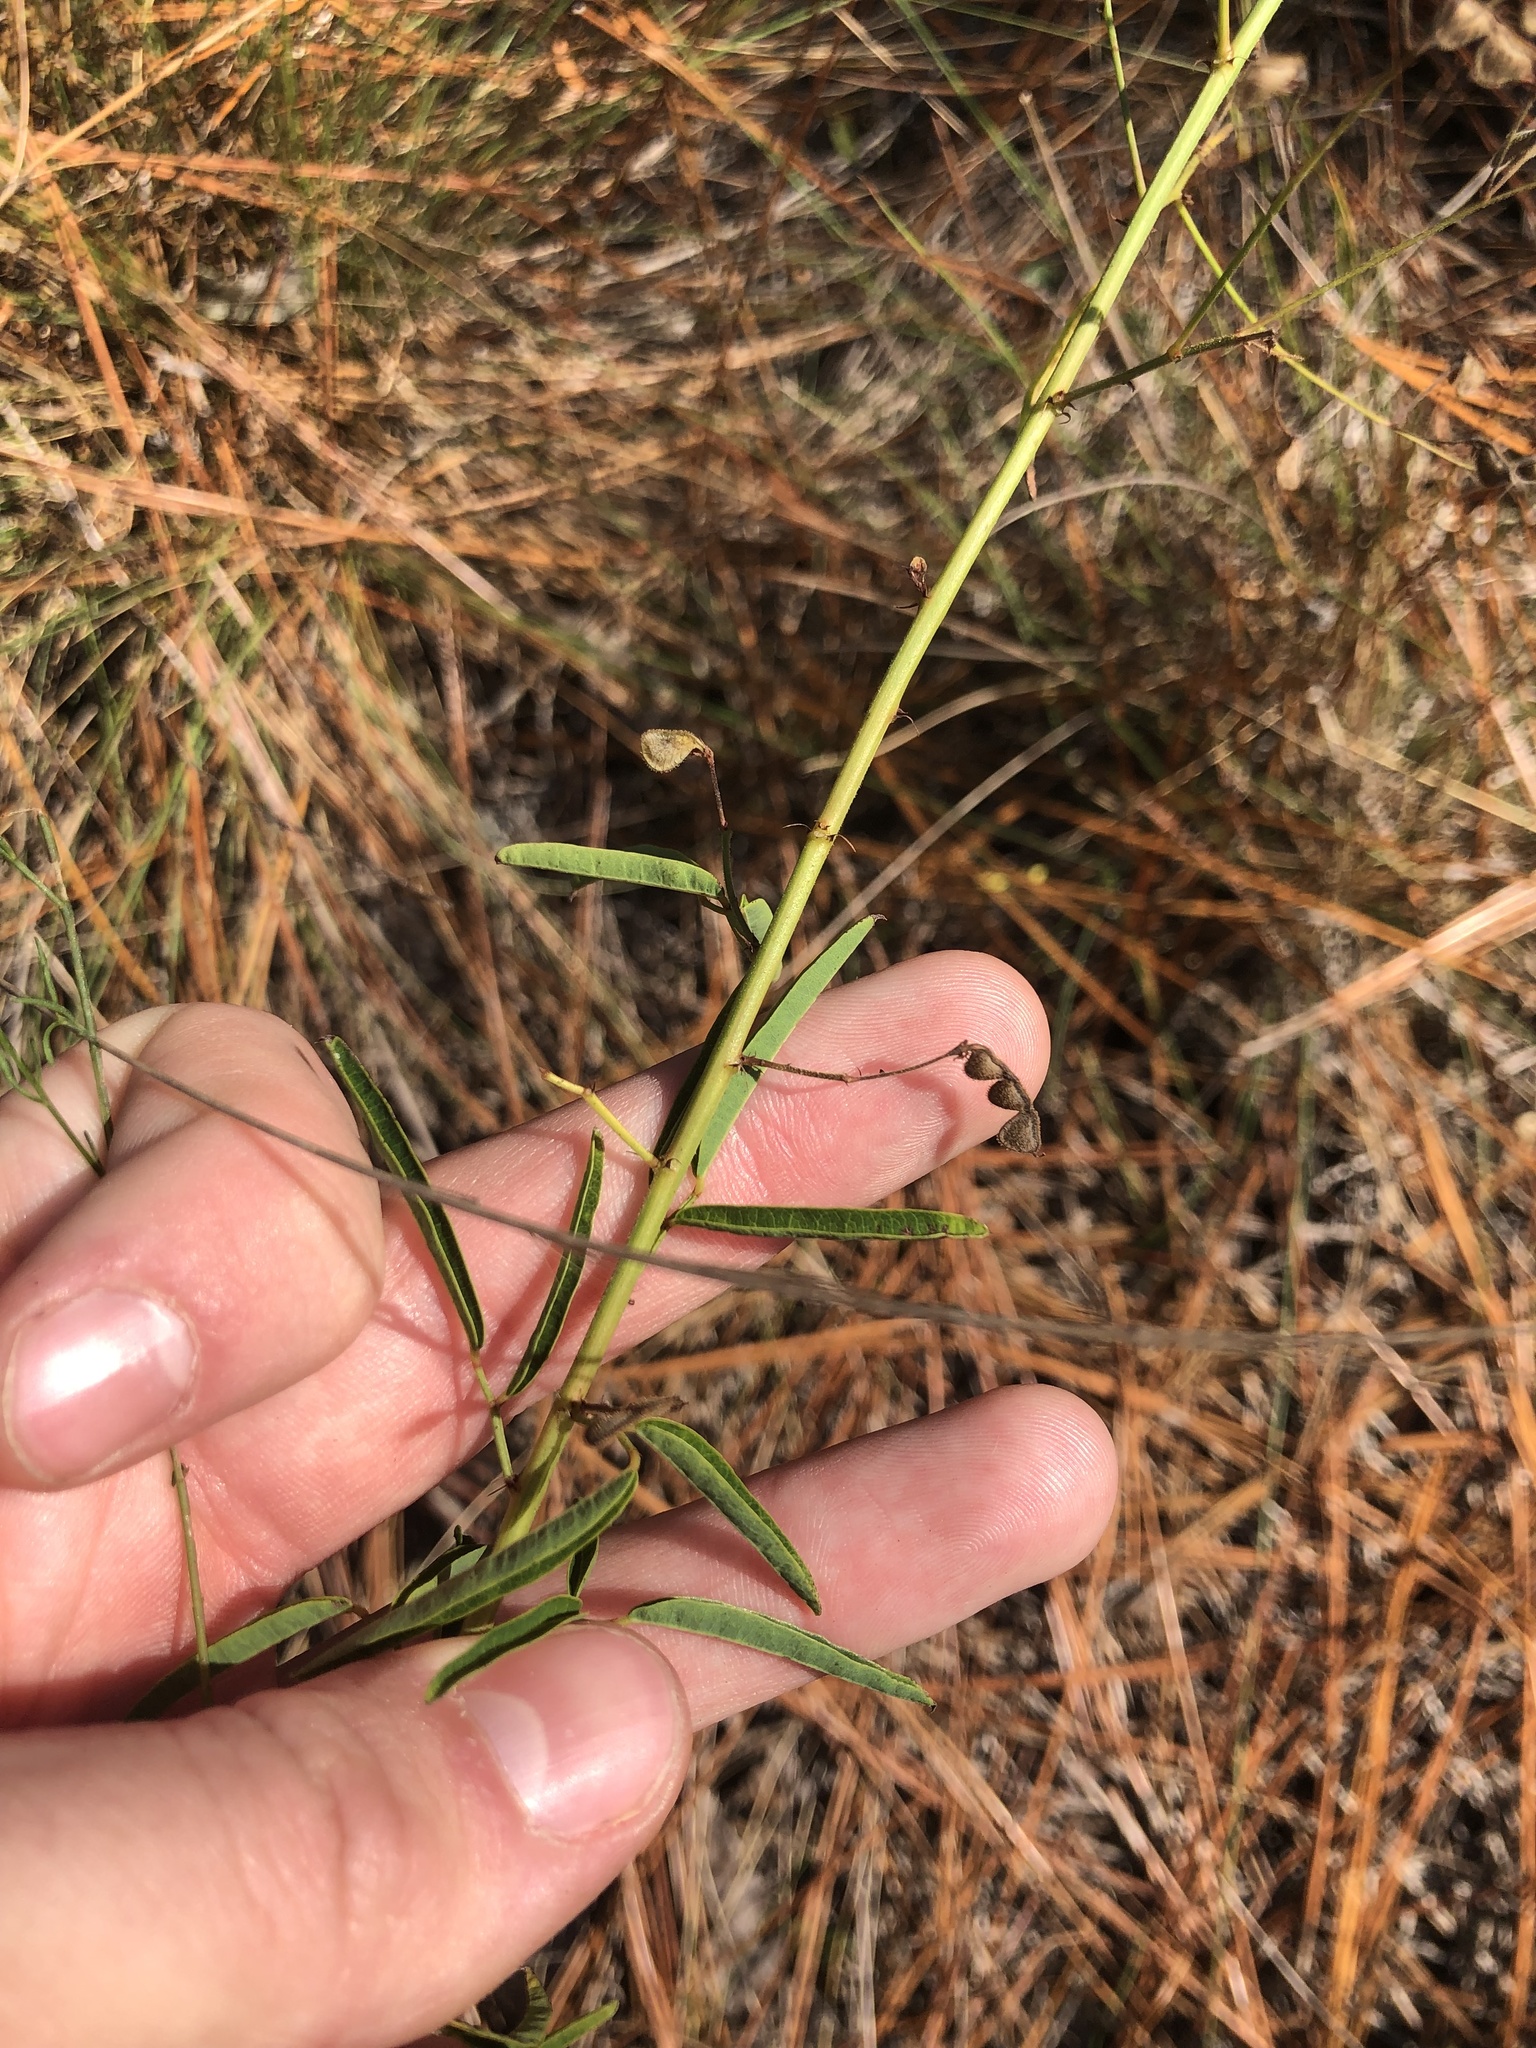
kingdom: Plantae
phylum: Tracheophyta
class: Magnoliopsida
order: Fabales
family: Fabaceae
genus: Desmodium
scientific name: Desmodium strictum
